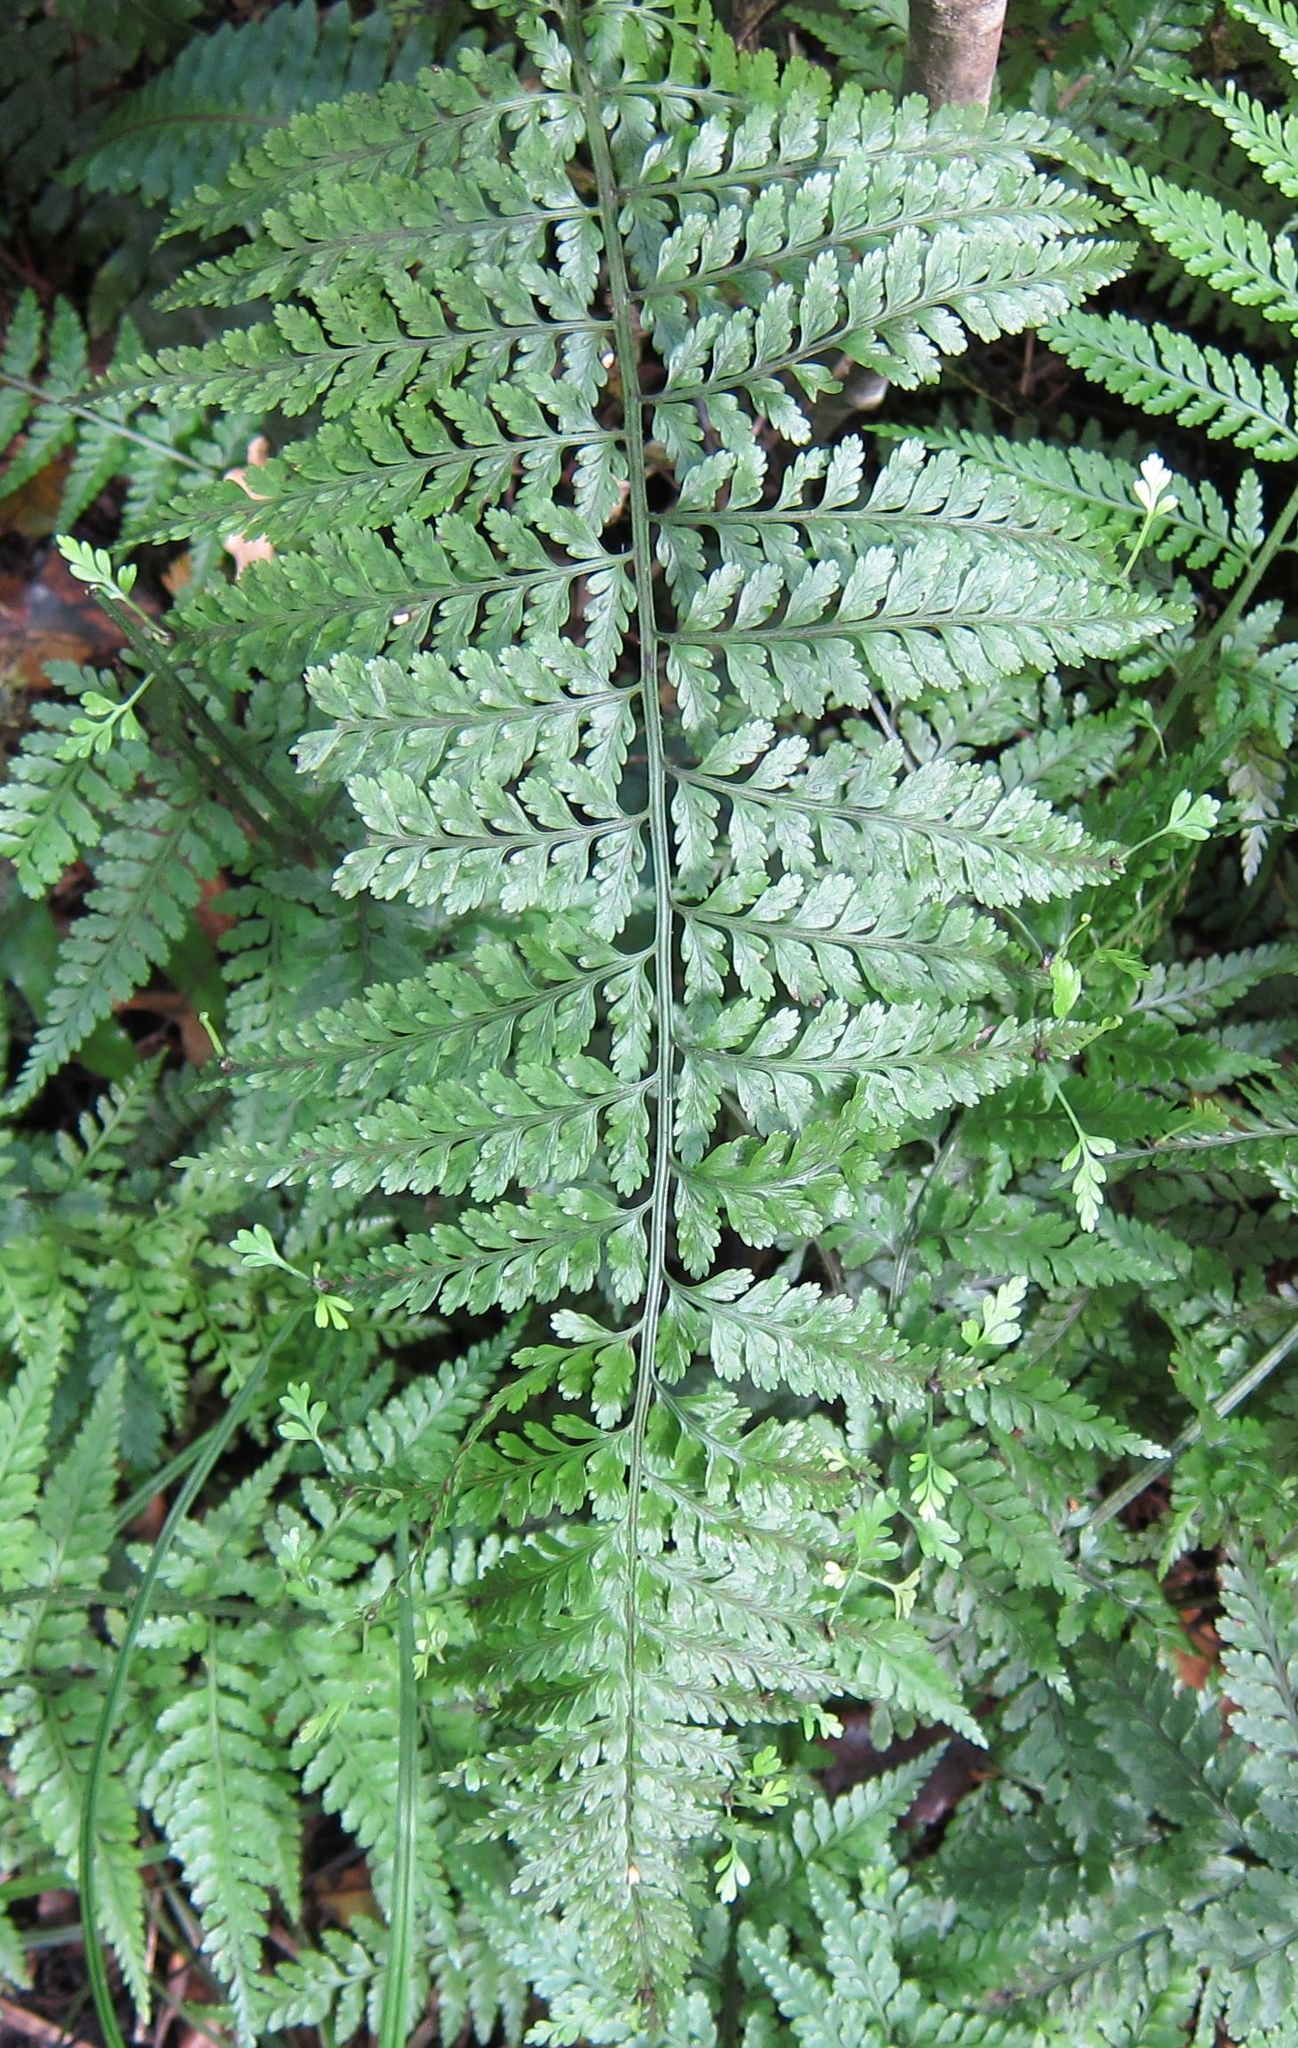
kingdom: Plantae
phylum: Tracheophyta
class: Polypodiopsida
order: Polypodiales
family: Aspleniaceae
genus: Asplenium
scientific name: Asplenium
